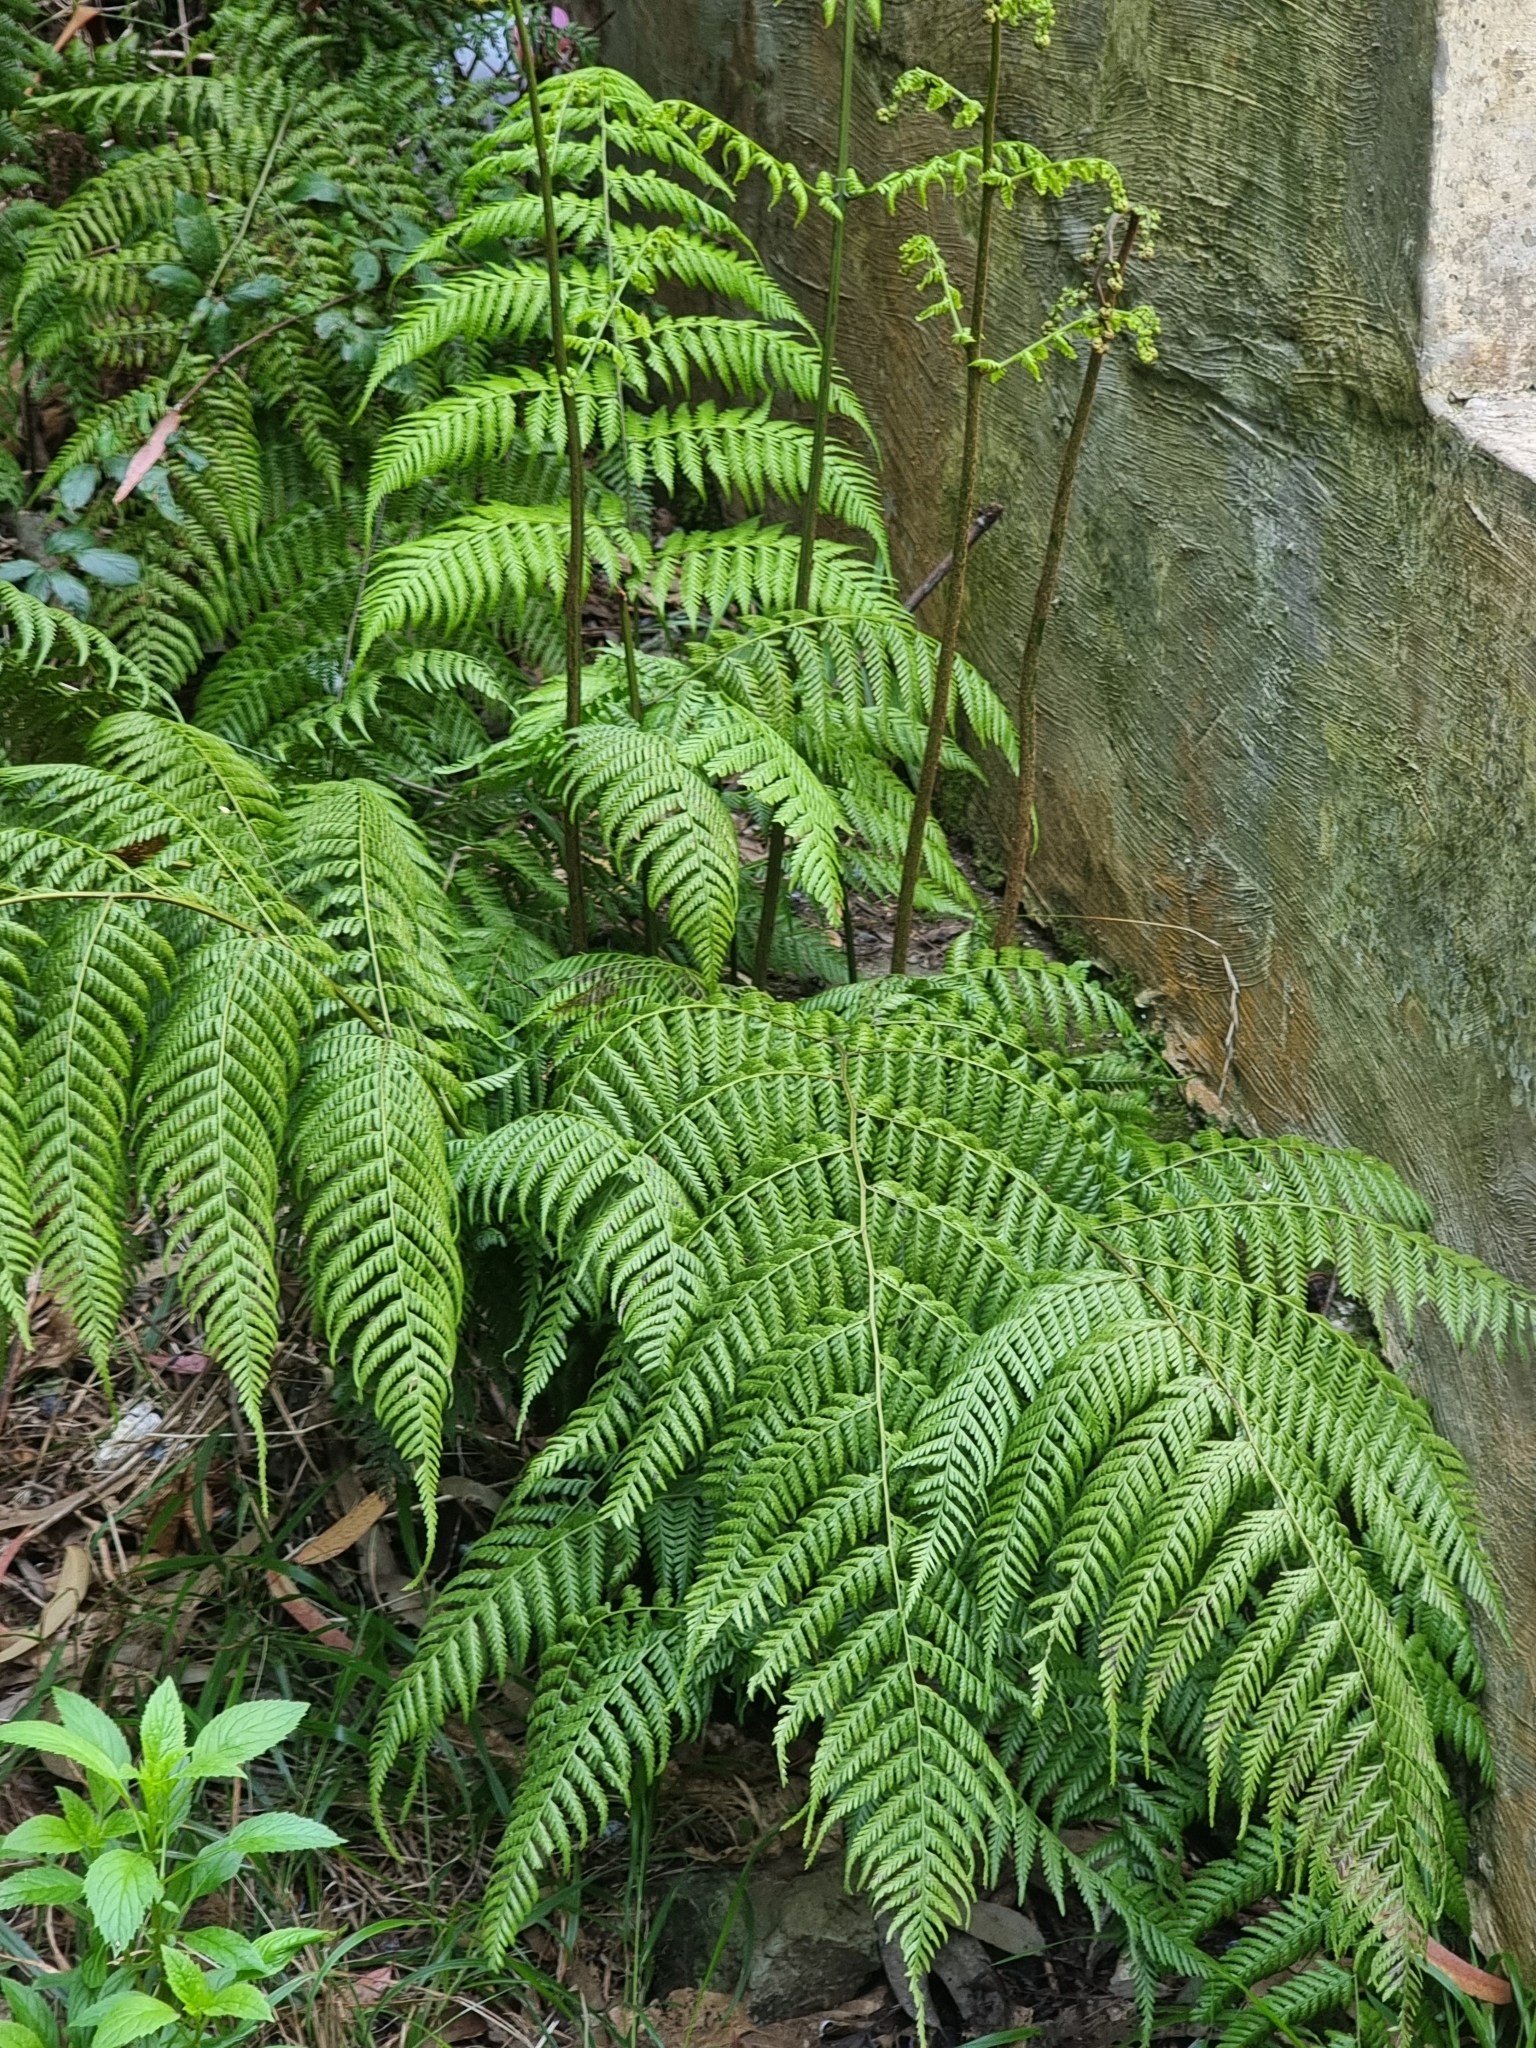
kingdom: Plantae
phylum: Tracheophyta
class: Polypodiopsida
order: Polypodiales
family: Athyriaceae
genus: Diplazium
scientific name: Diplazium caudatum
